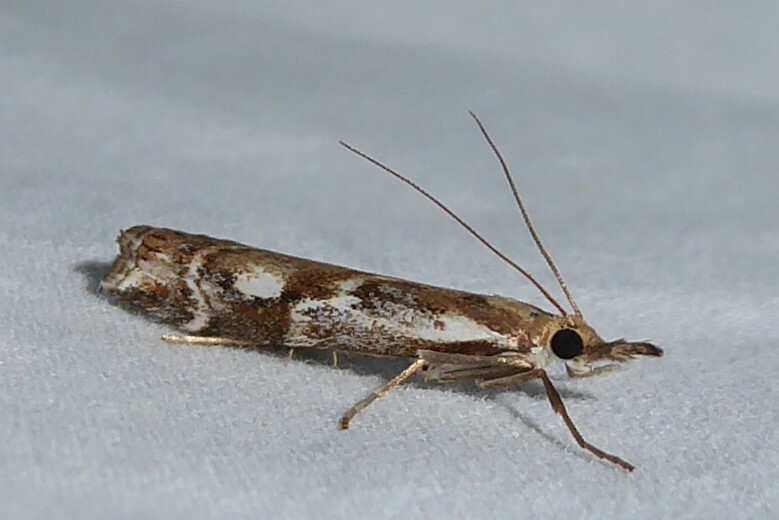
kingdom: Animalia
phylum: Arthropoda
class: Insecta
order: Lepidoptera
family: Crambidae
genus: Orocrambus
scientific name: Orocrambus vulgaris
